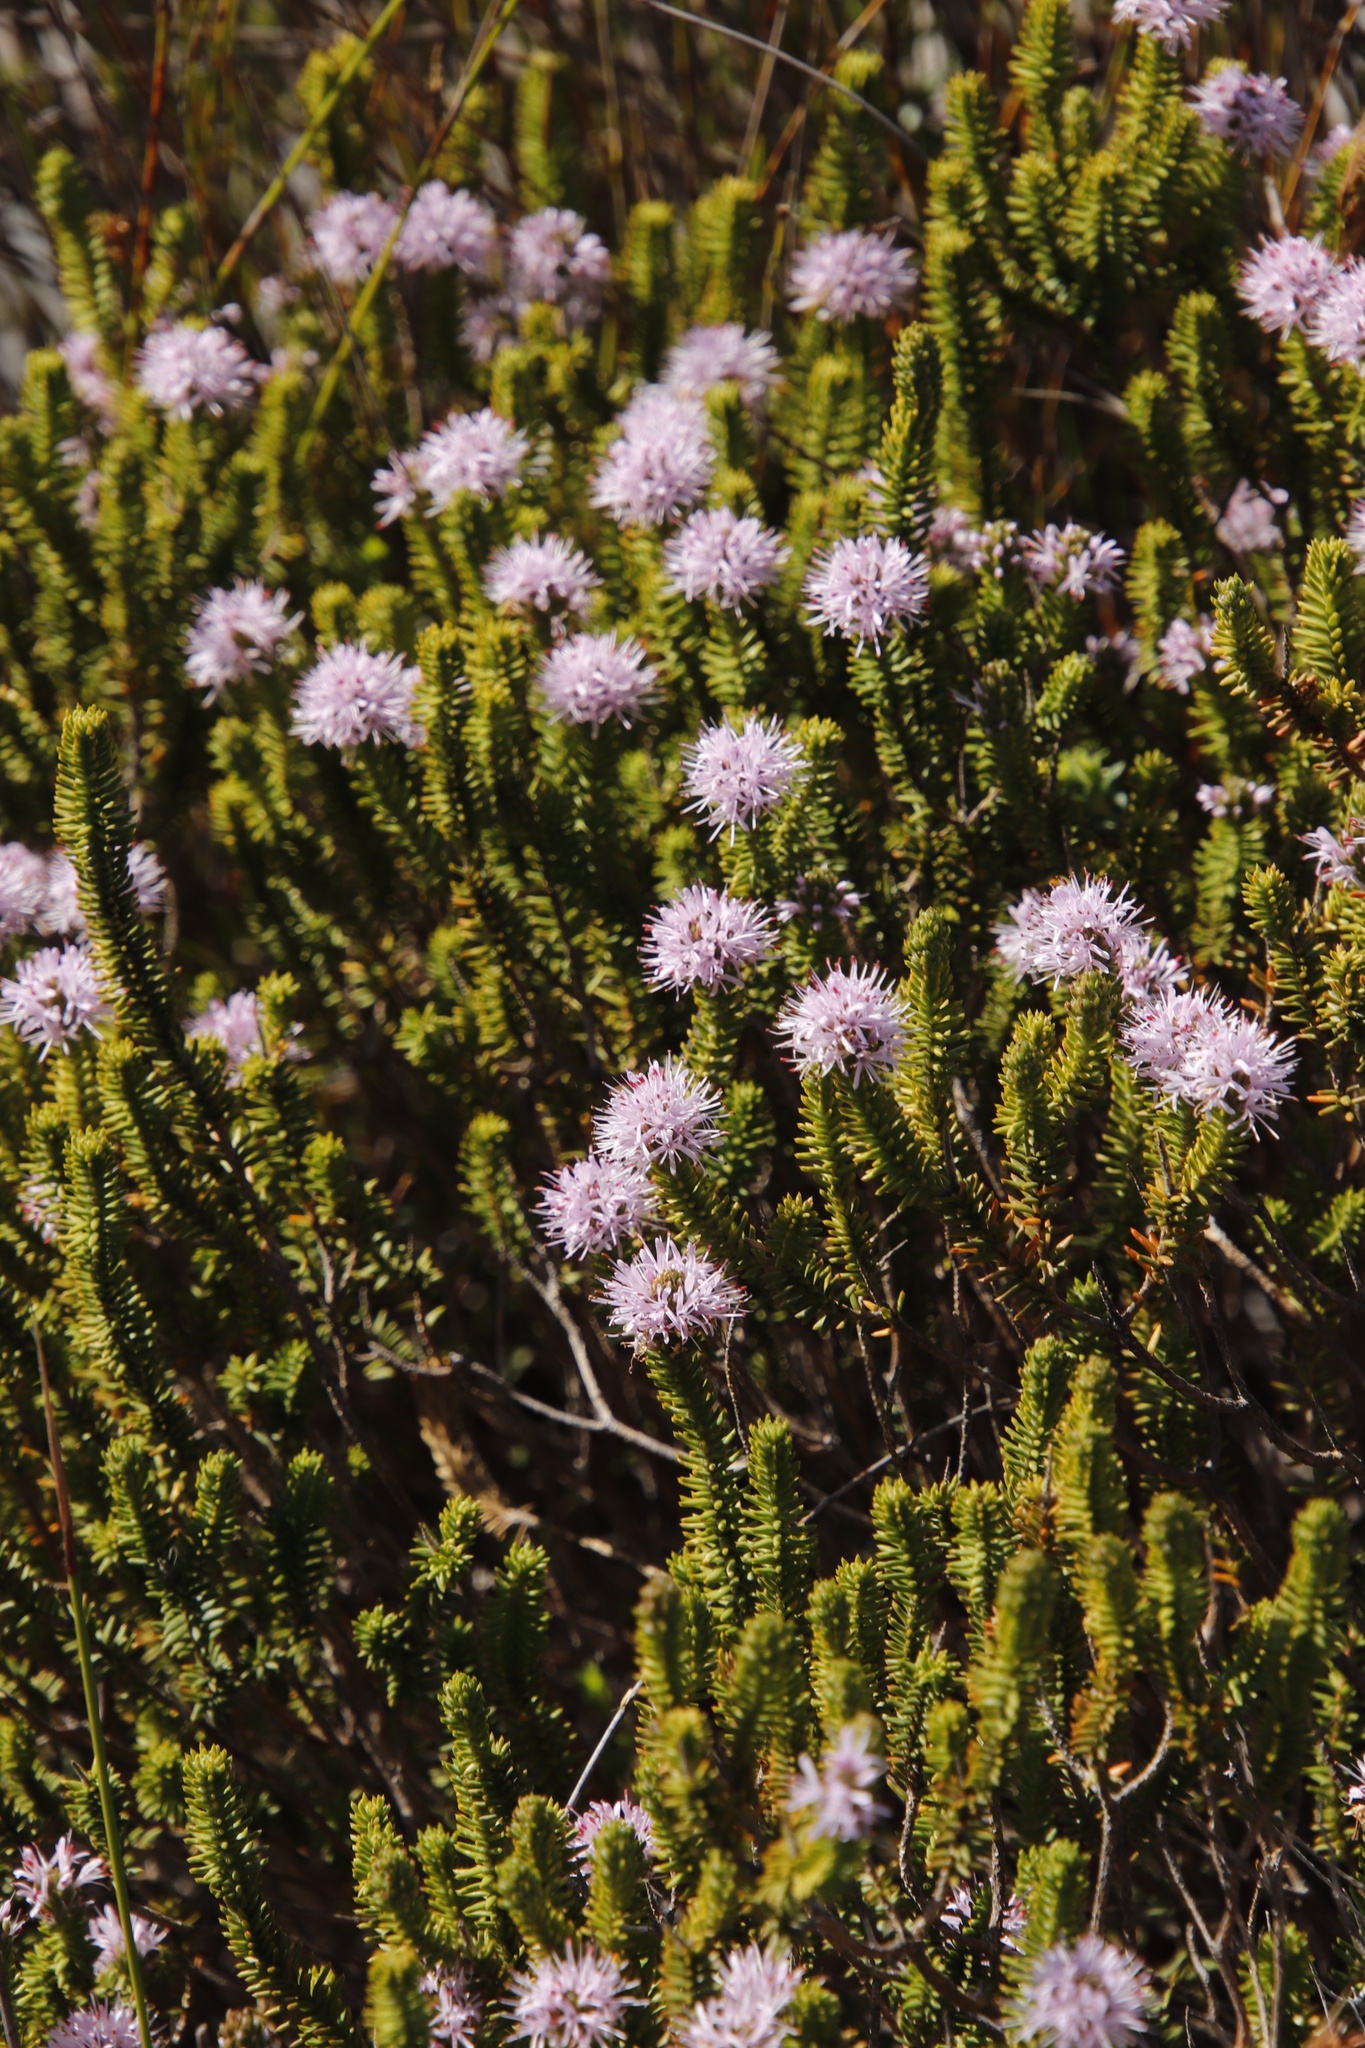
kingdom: Plantae
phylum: Tracheophyta
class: Magnoliopsida
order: Lamiales
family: Stilbaceae
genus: Stilbe
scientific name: Stilbe ericoides
